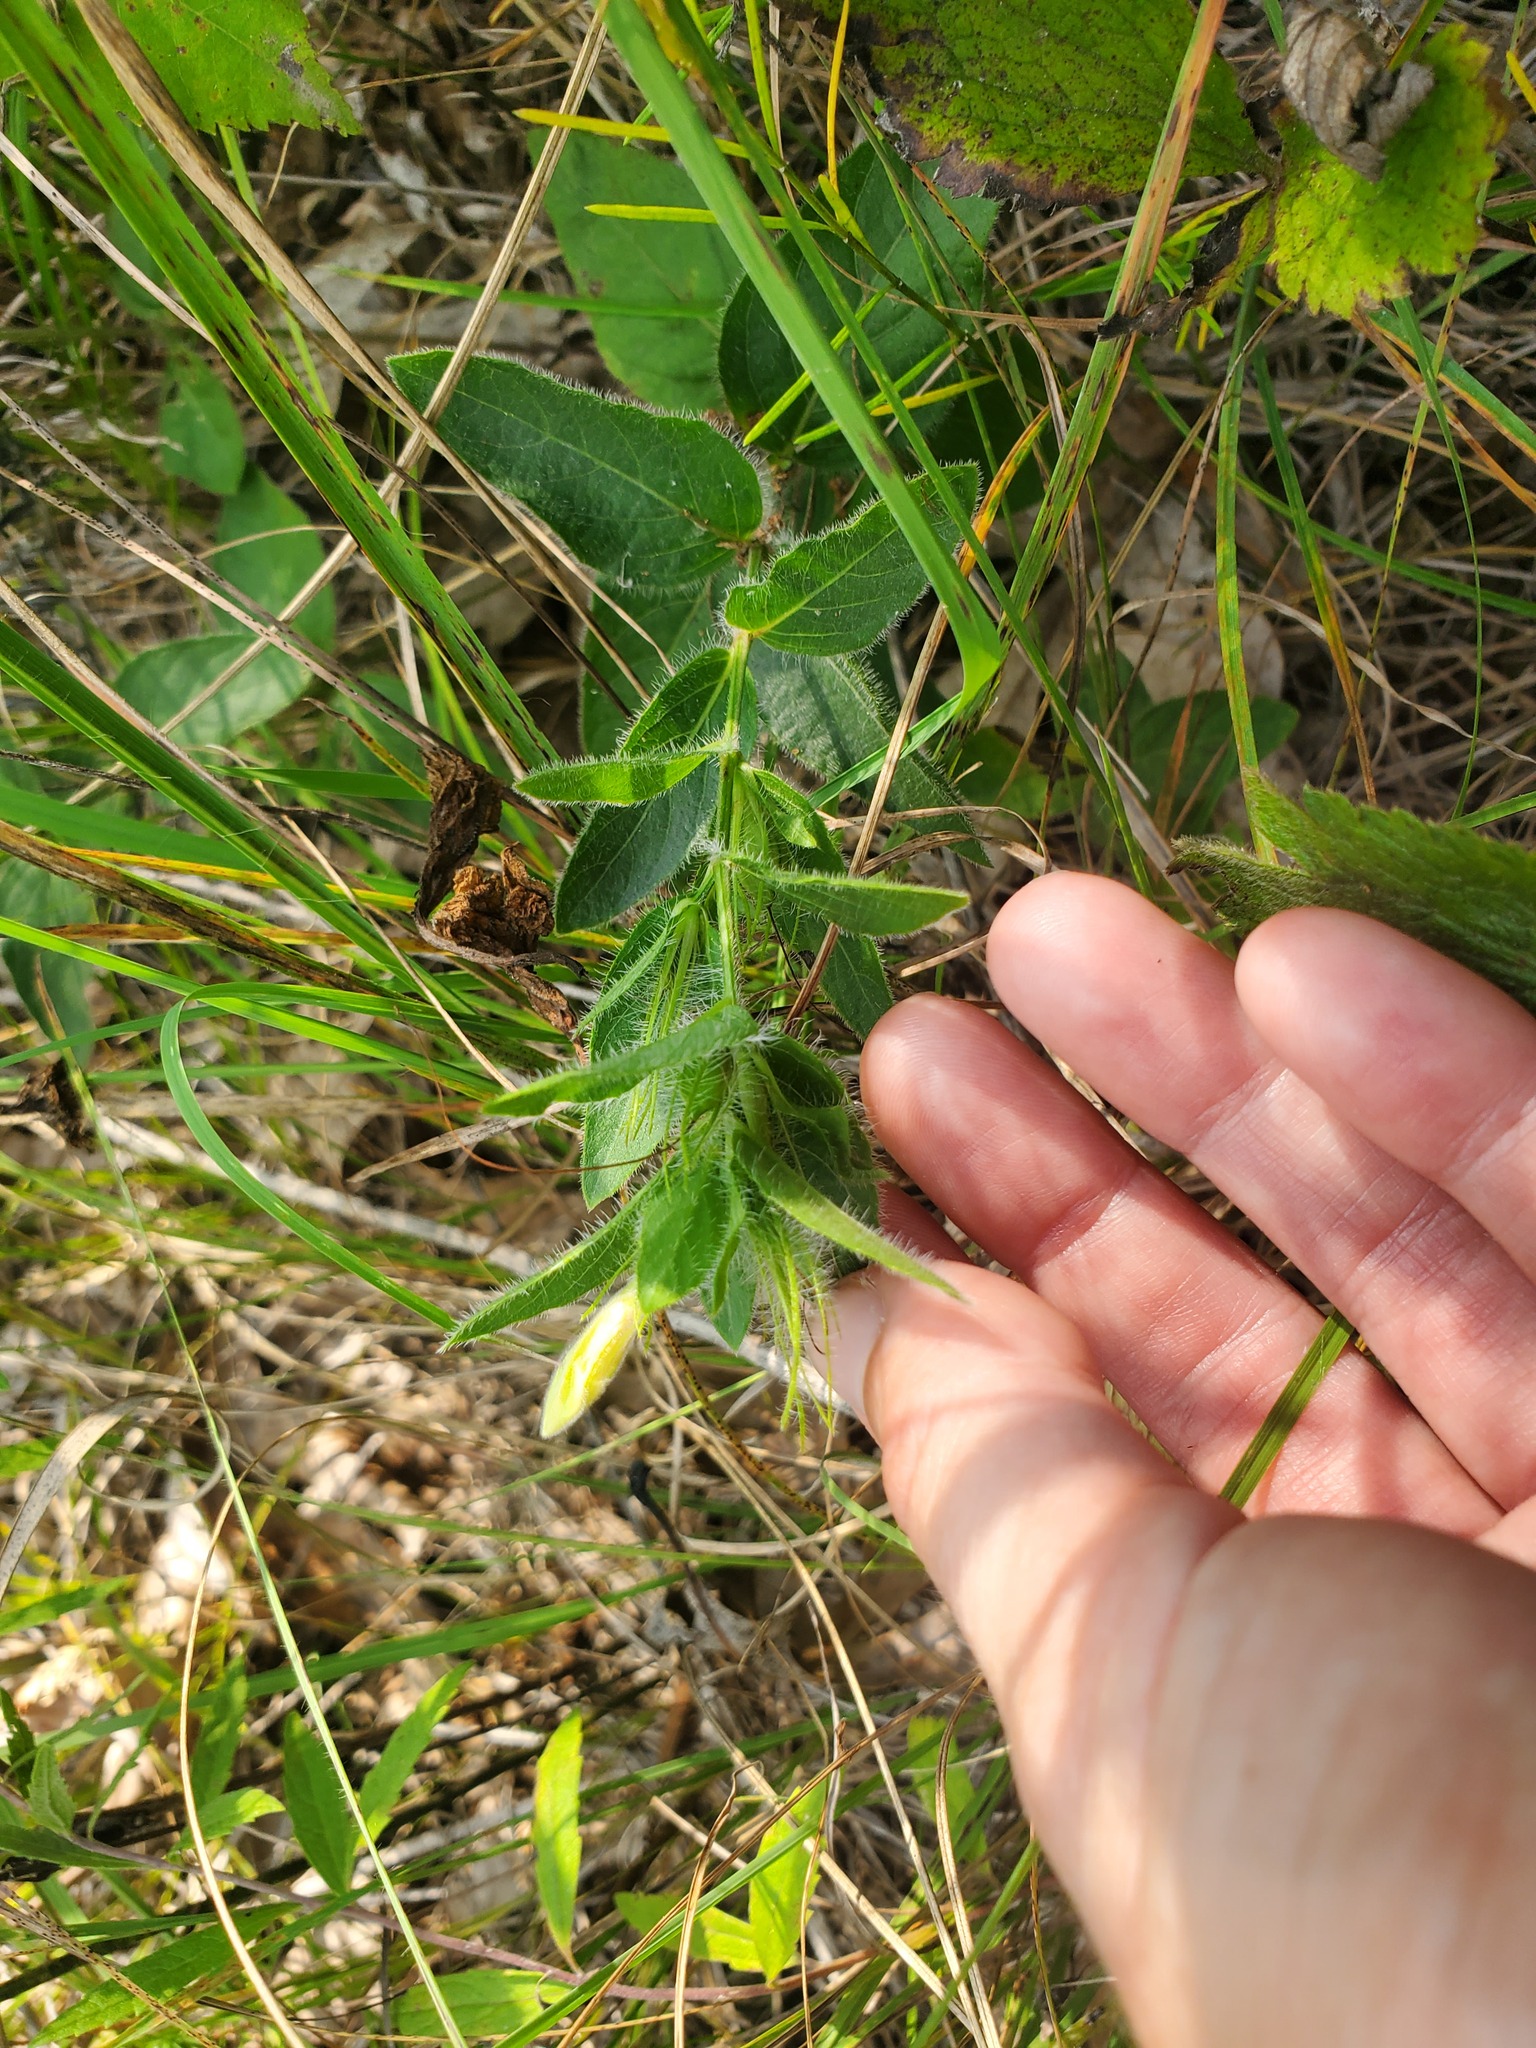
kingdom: Plantae
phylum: Tracheophyta
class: Magnoliopsida
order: Lamiales
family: Acanthaceae
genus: Ruellia
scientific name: Ruellia humilis
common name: Fringe-leaf ruellia
